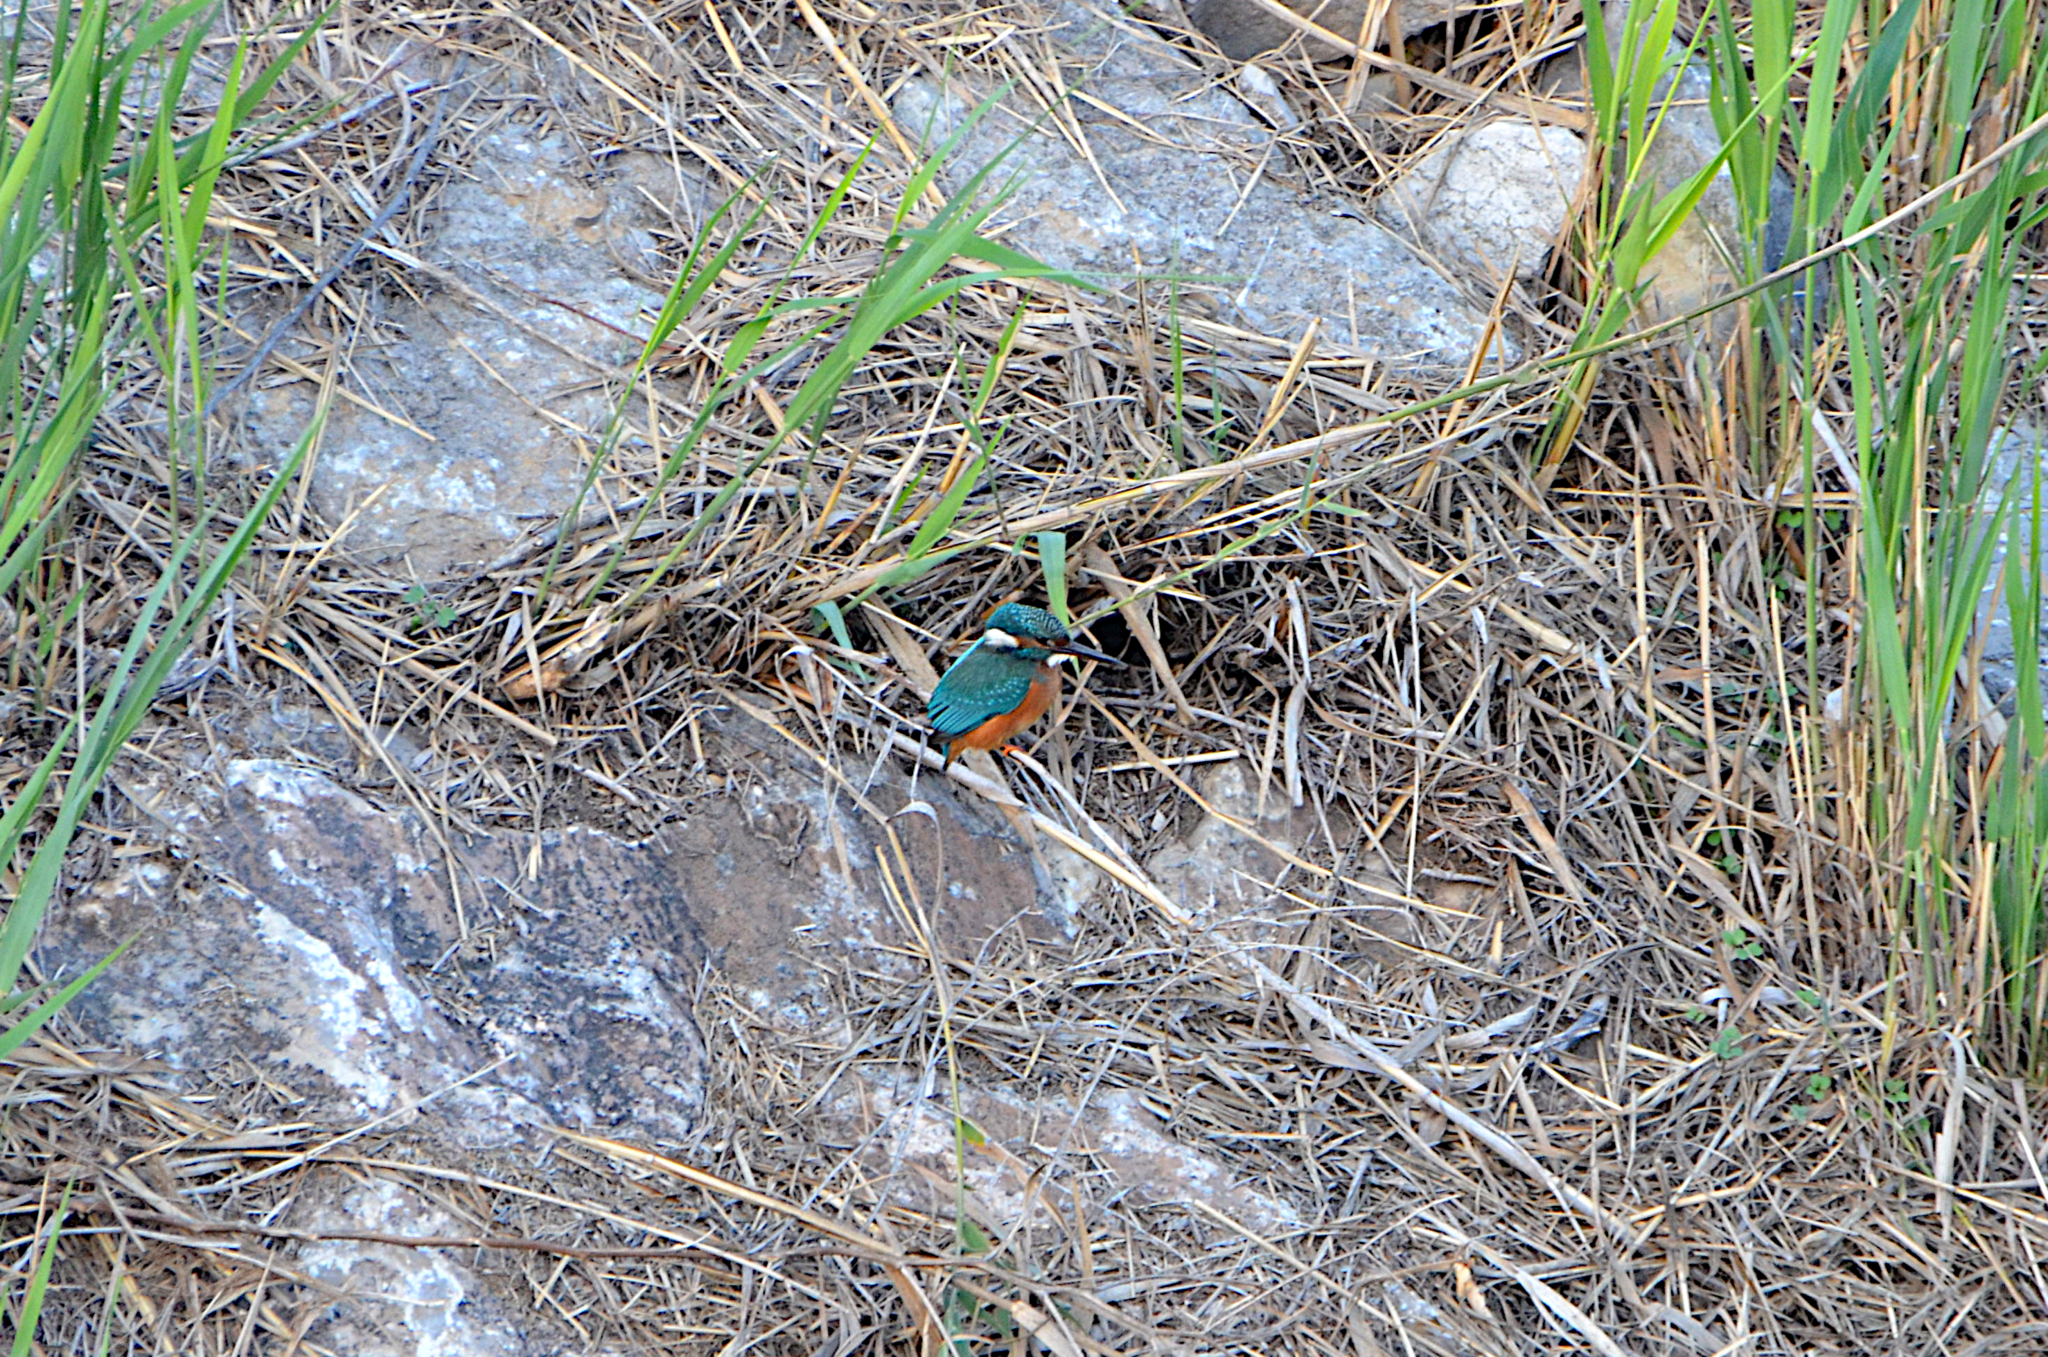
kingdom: Animalia
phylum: Chordata
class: Aves
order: Coraciiformes
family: Alcedinidae
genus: Alcedo
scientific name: Alcedo atthis
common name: Common kingfisher
